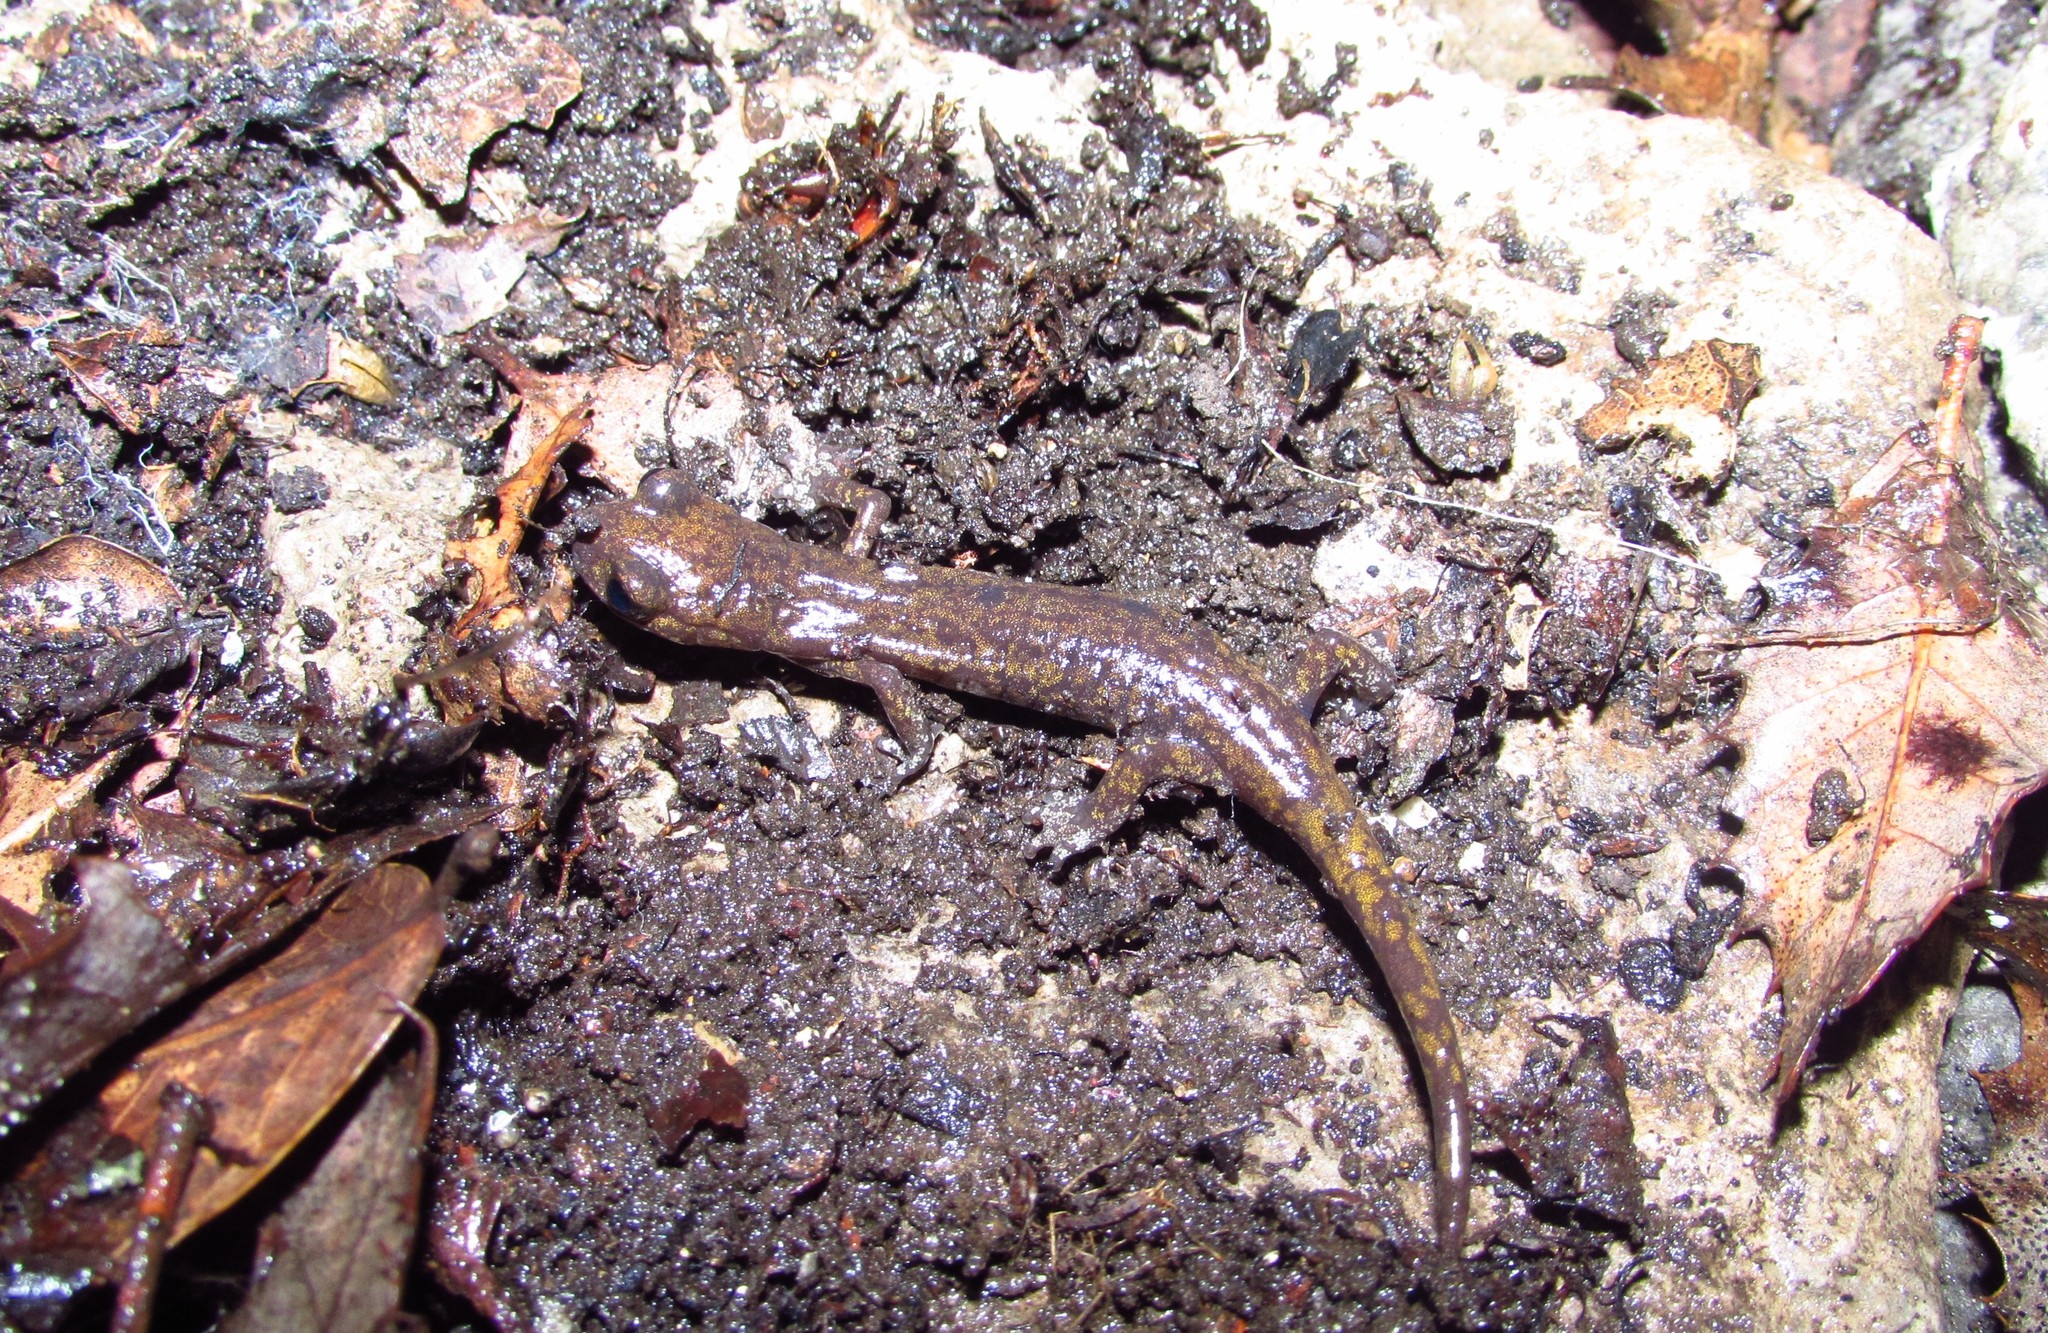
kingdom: Animalia
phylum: Chordata
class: Amphibia
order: Caudata
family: Plethodontidae
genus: Hydromantes
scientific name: Hydromantes samweli
